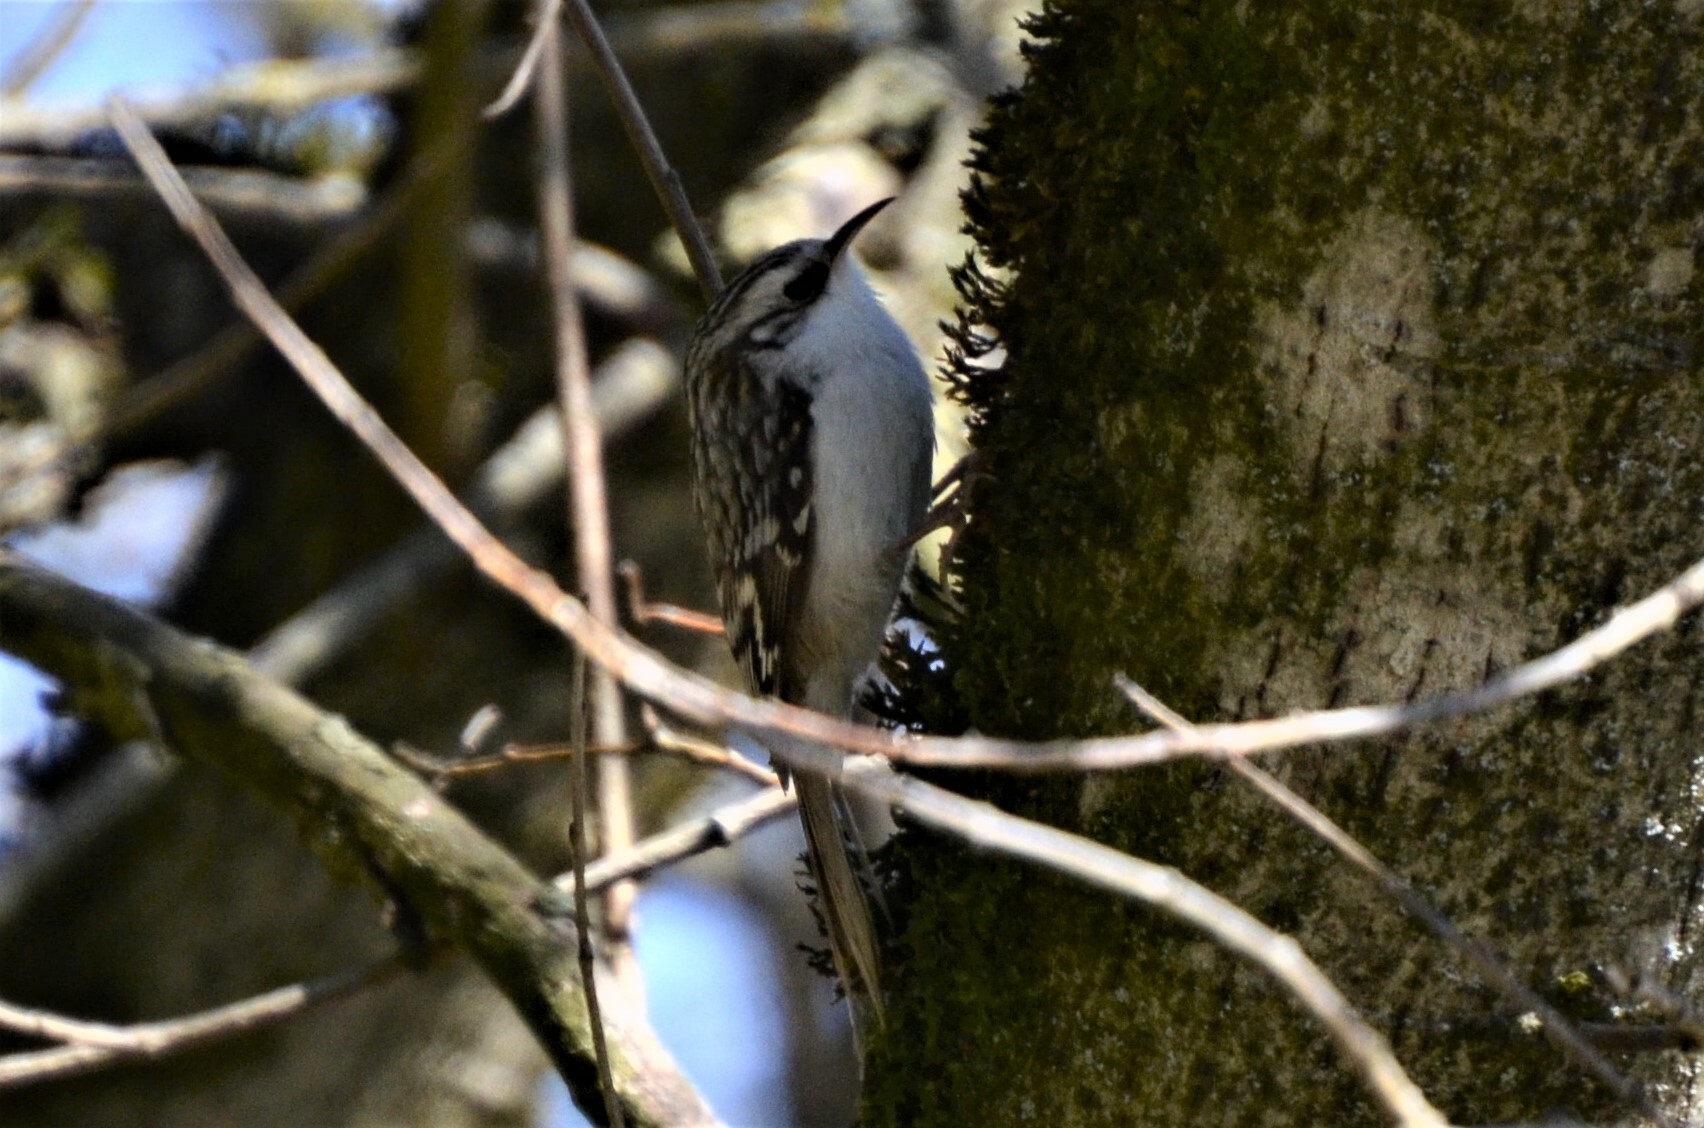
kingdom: Animalia
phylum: Chordata
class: Aves
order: Passeriformes
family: Certhiidae
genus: Certhia
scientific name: Certhia familiaris
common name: Eurasian treecreeper
